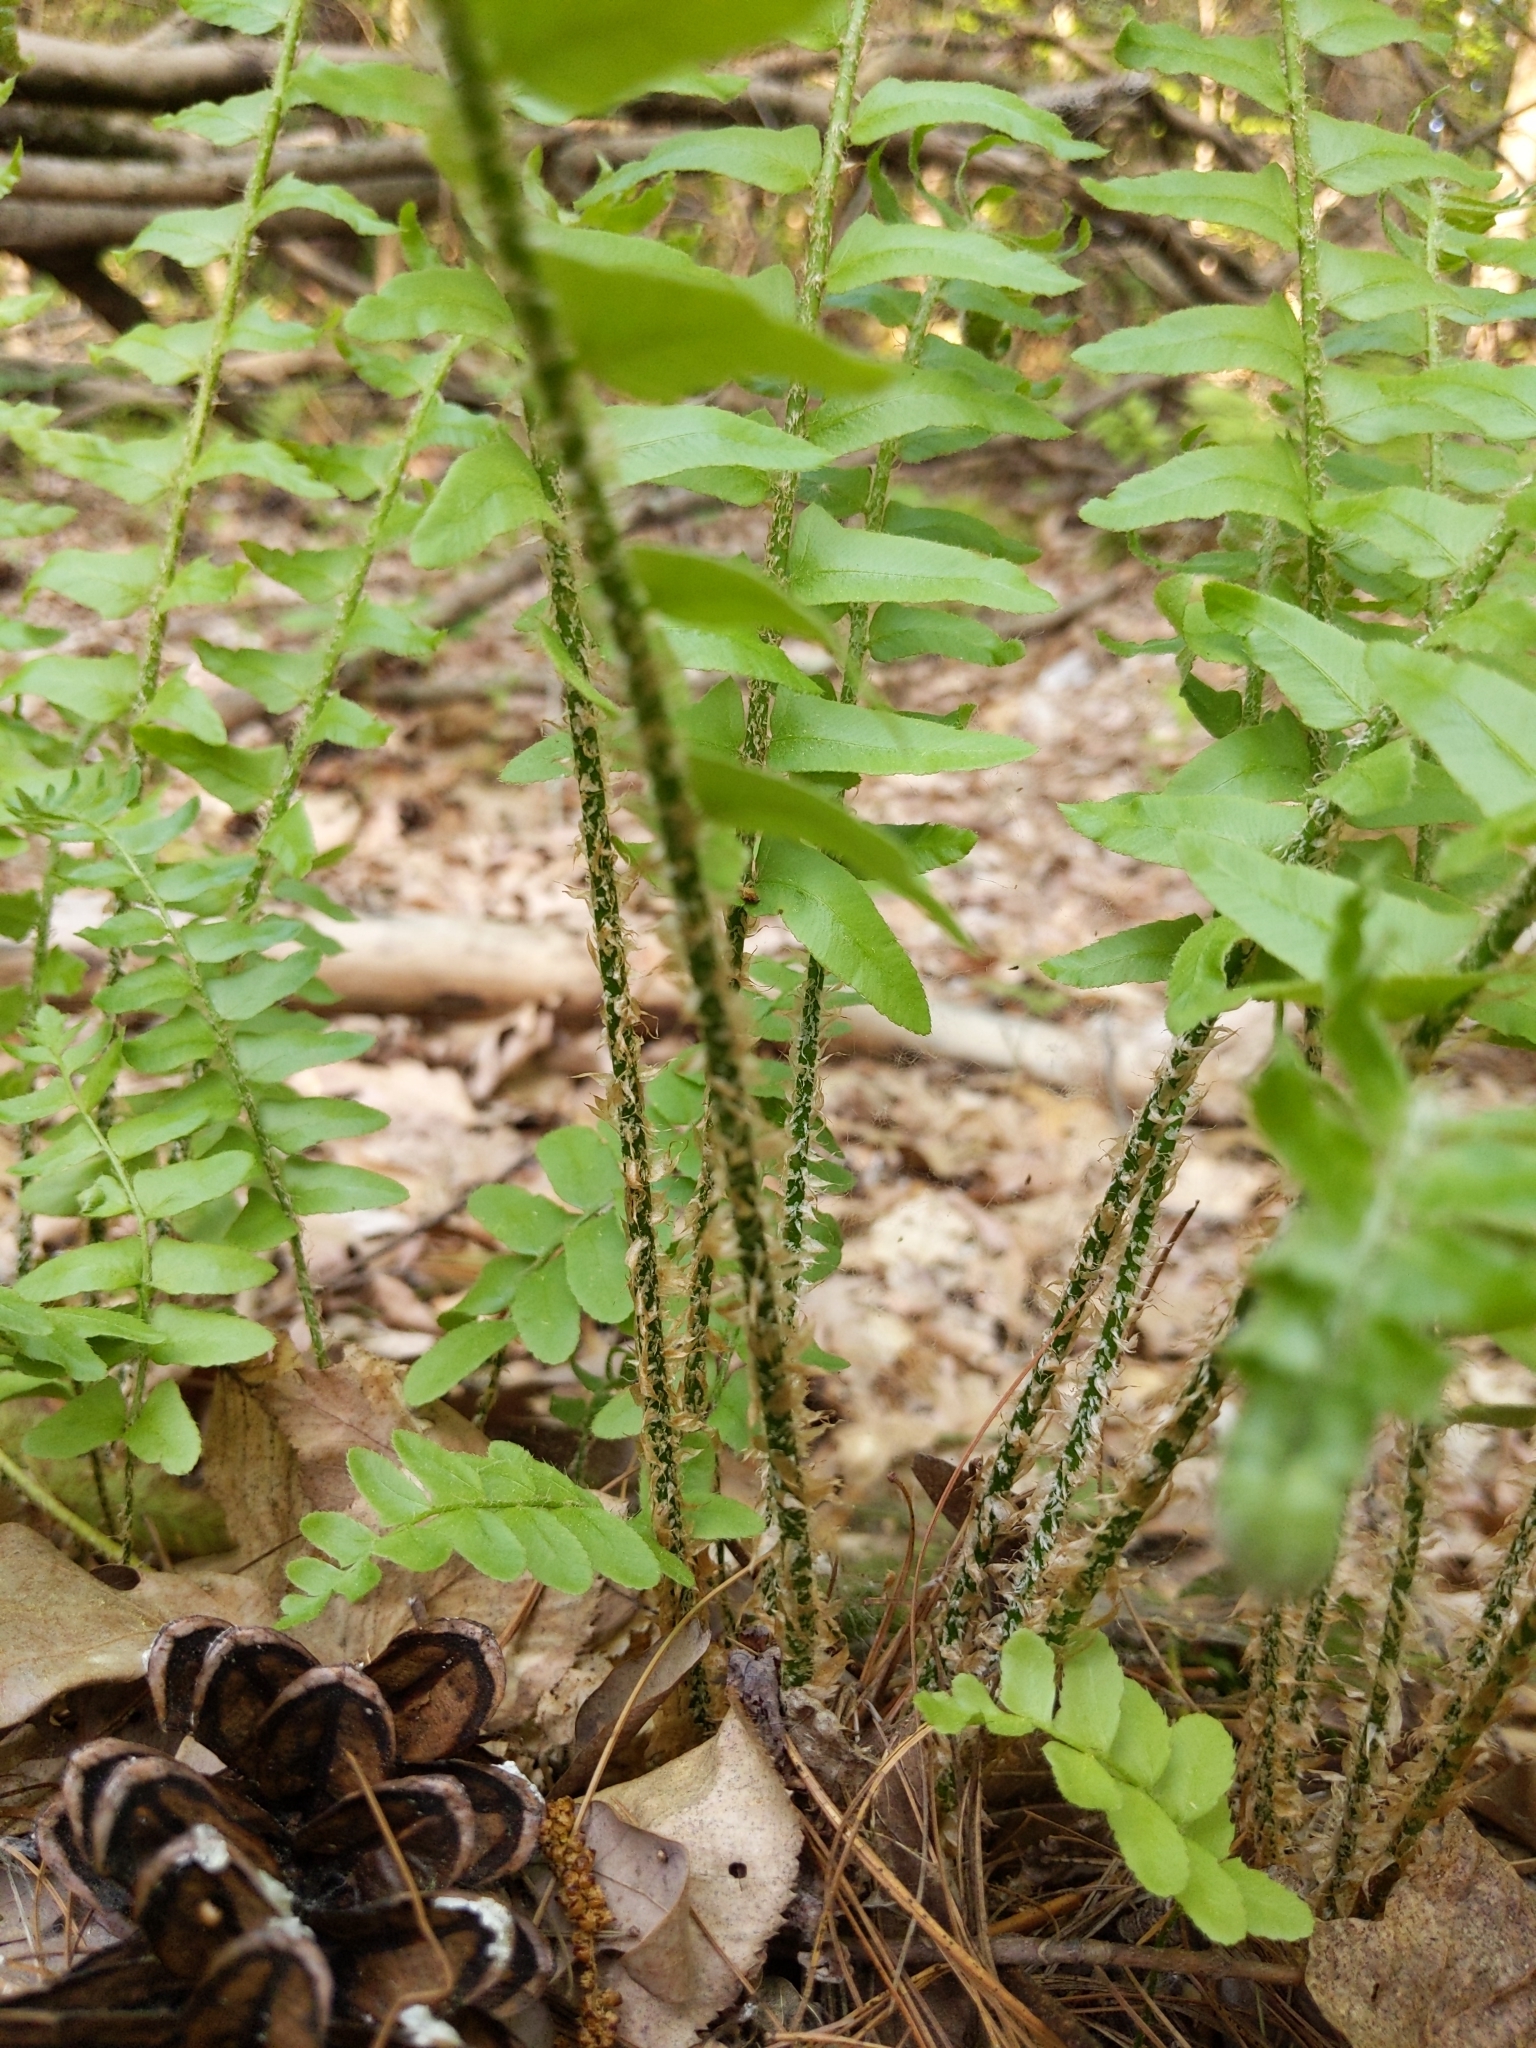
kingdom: Plantae
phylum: Tracheophyta
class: Polypodiopsida
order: Polypodiales
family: Dryopteridaceae
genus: Polystichum
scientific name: Polystichum acrostichoides
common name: Christmas fern
